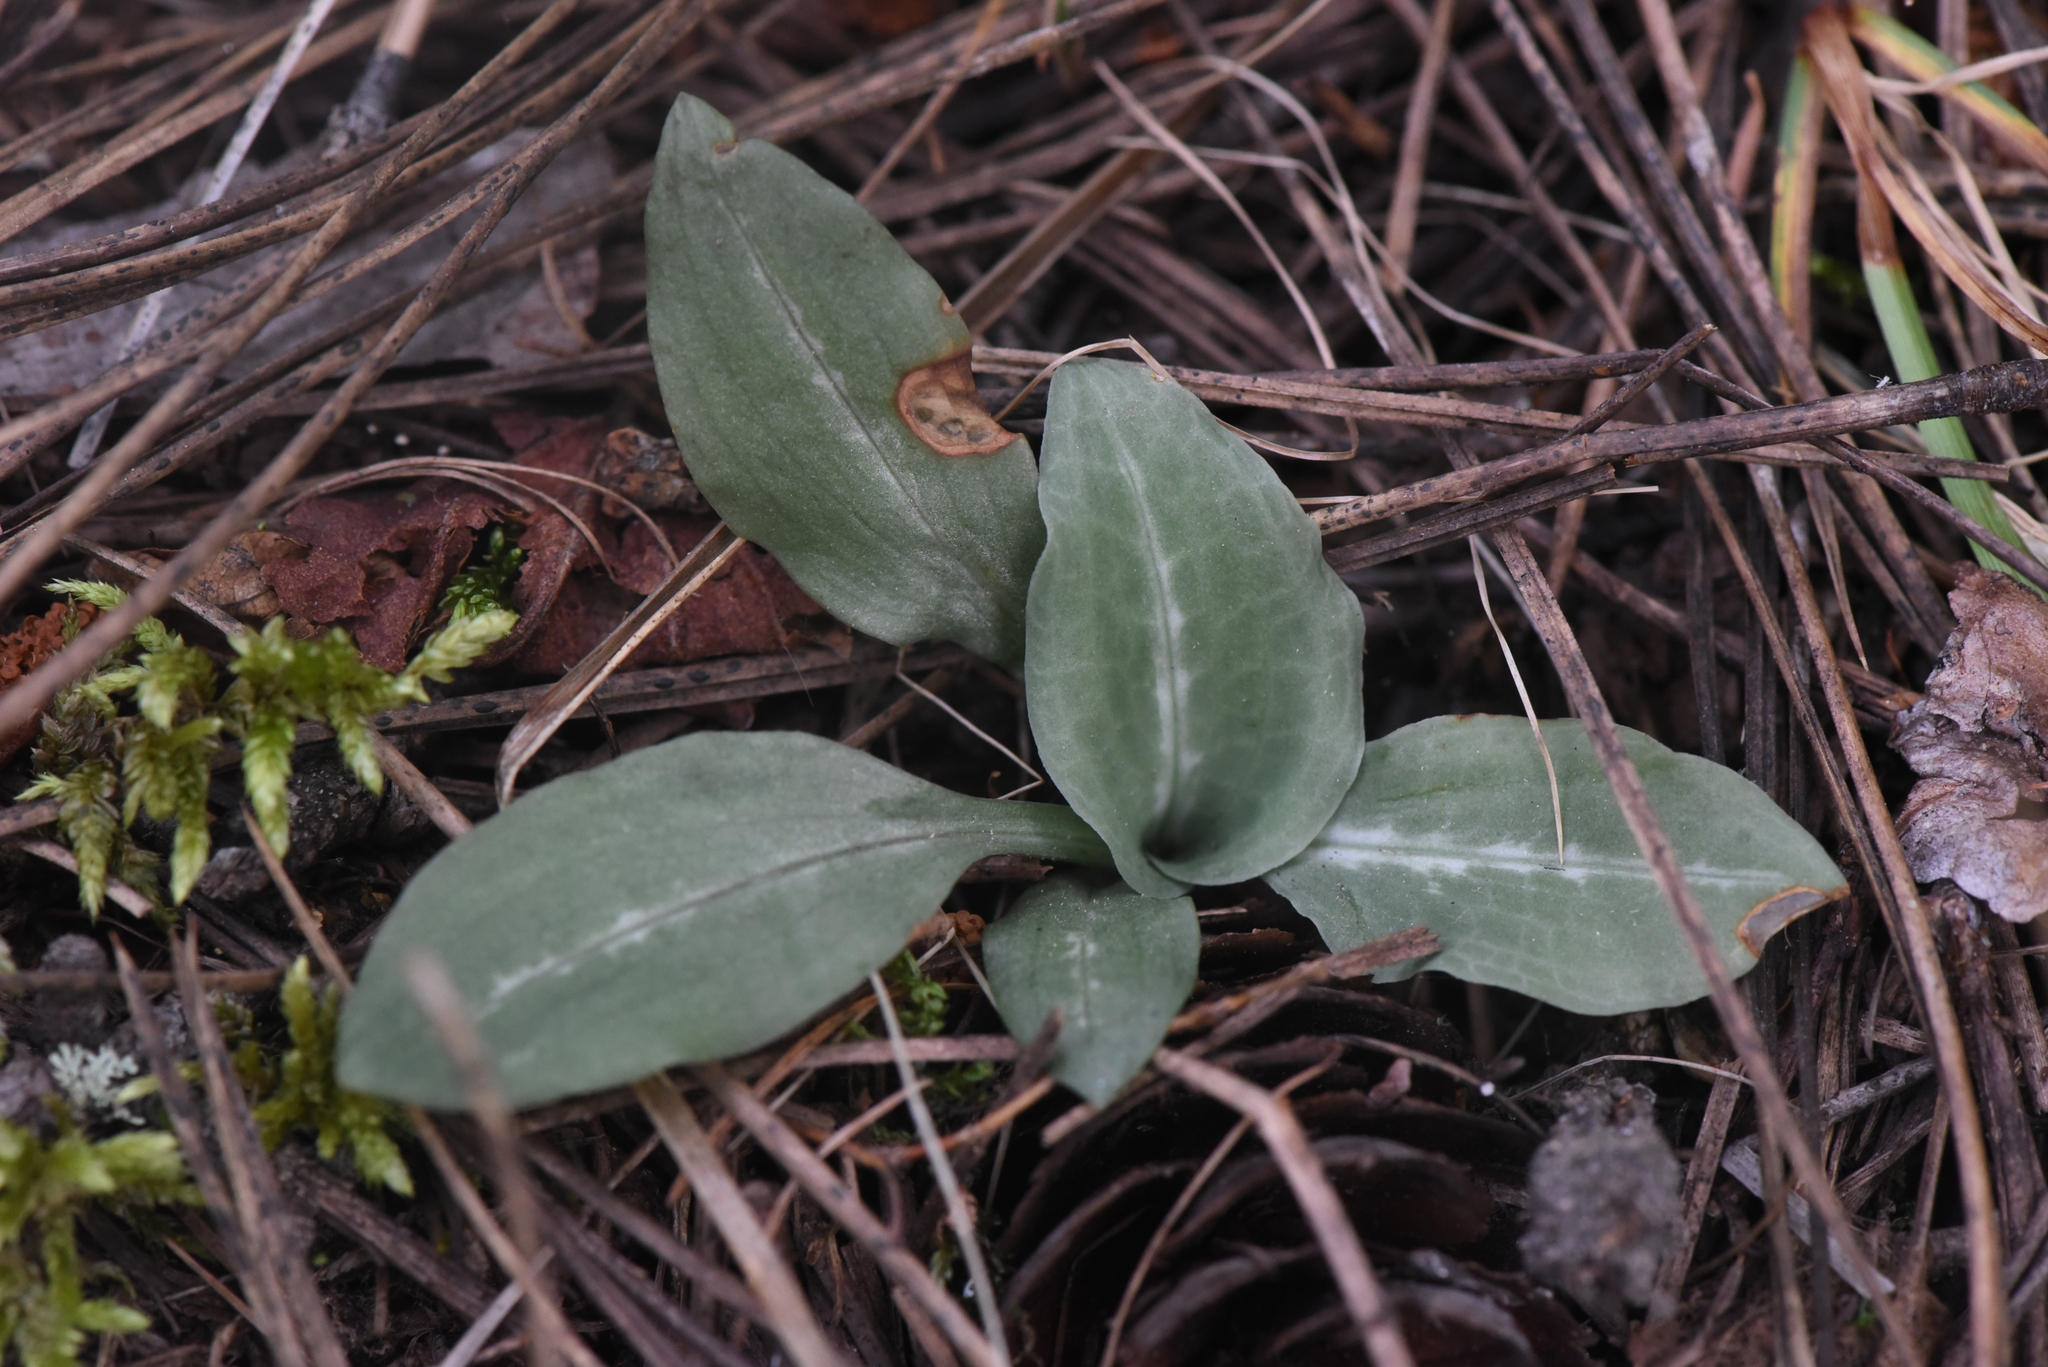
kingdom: Plantae
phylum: Tracheophyta
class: Liliopsida
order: Asparagales
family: Orchidaceae
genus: Goodyera
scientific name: Goodyera oblongifolia
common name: Giant rattlesnake-plantain
